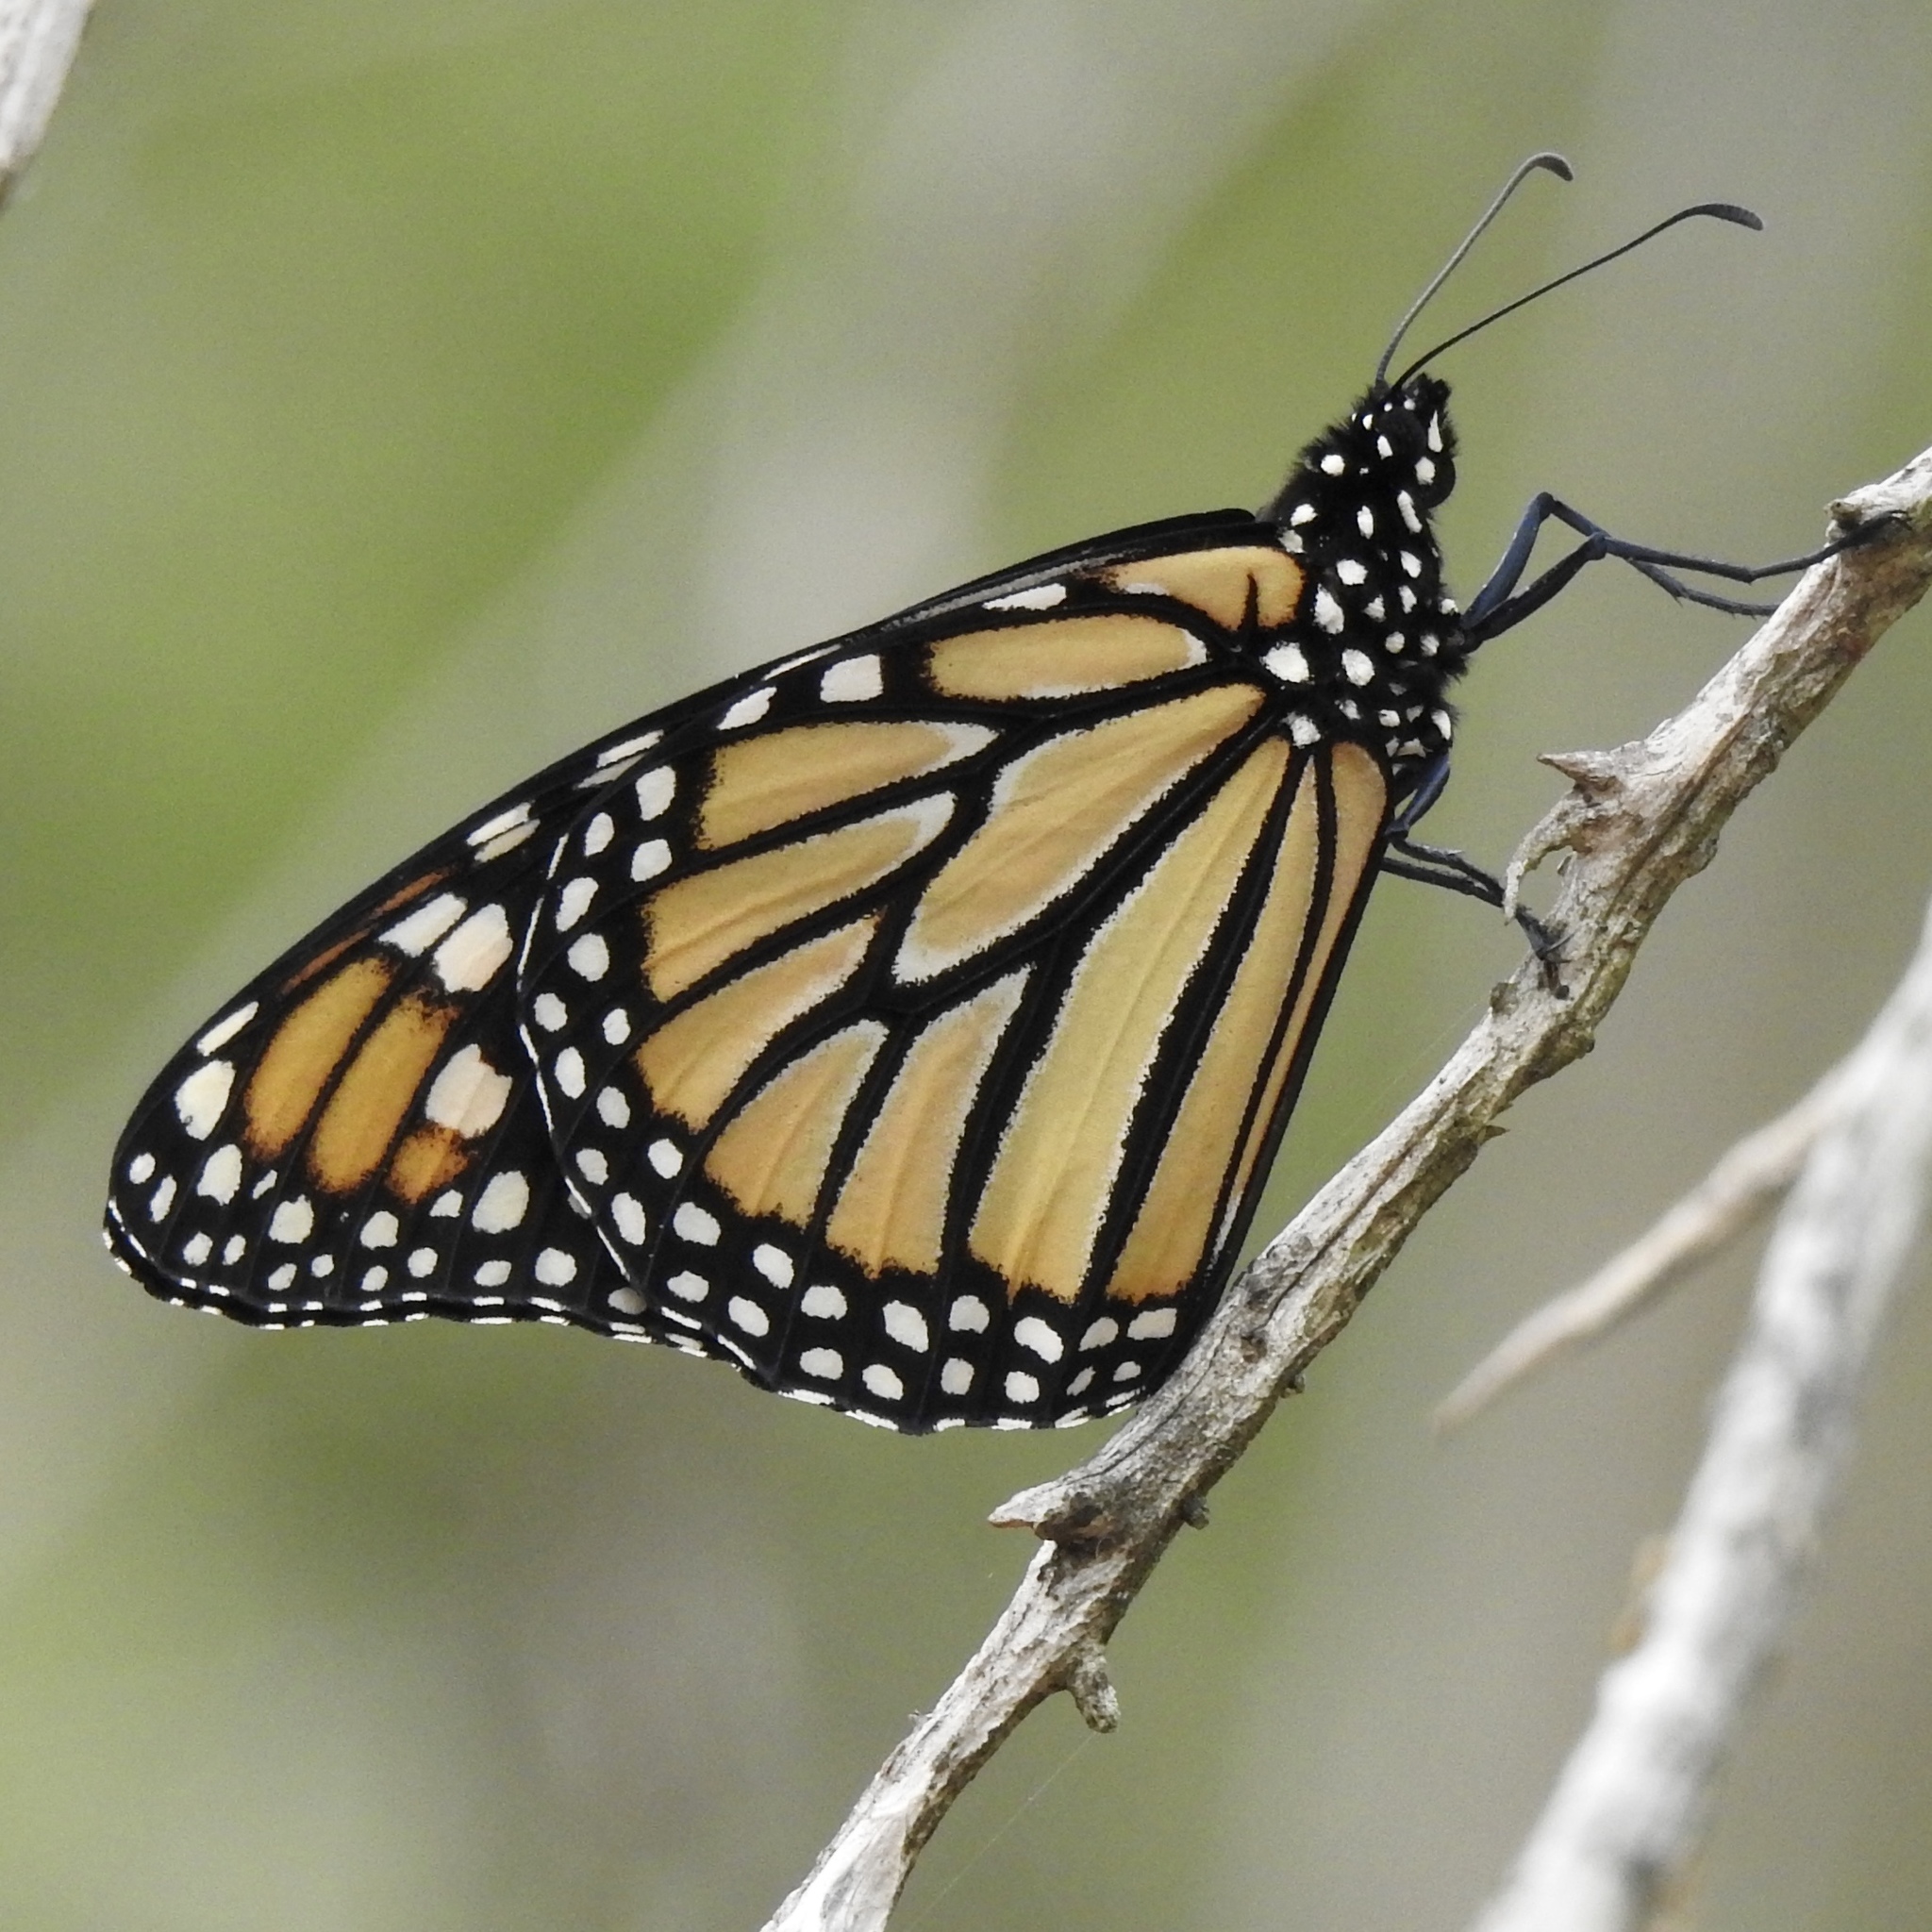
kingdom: Animalia
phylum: Arthropoda
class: Insecta
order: Lepidoptera
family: Nymphalidae
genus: Danaus
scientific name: Danaus plexippus
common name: Monarch
